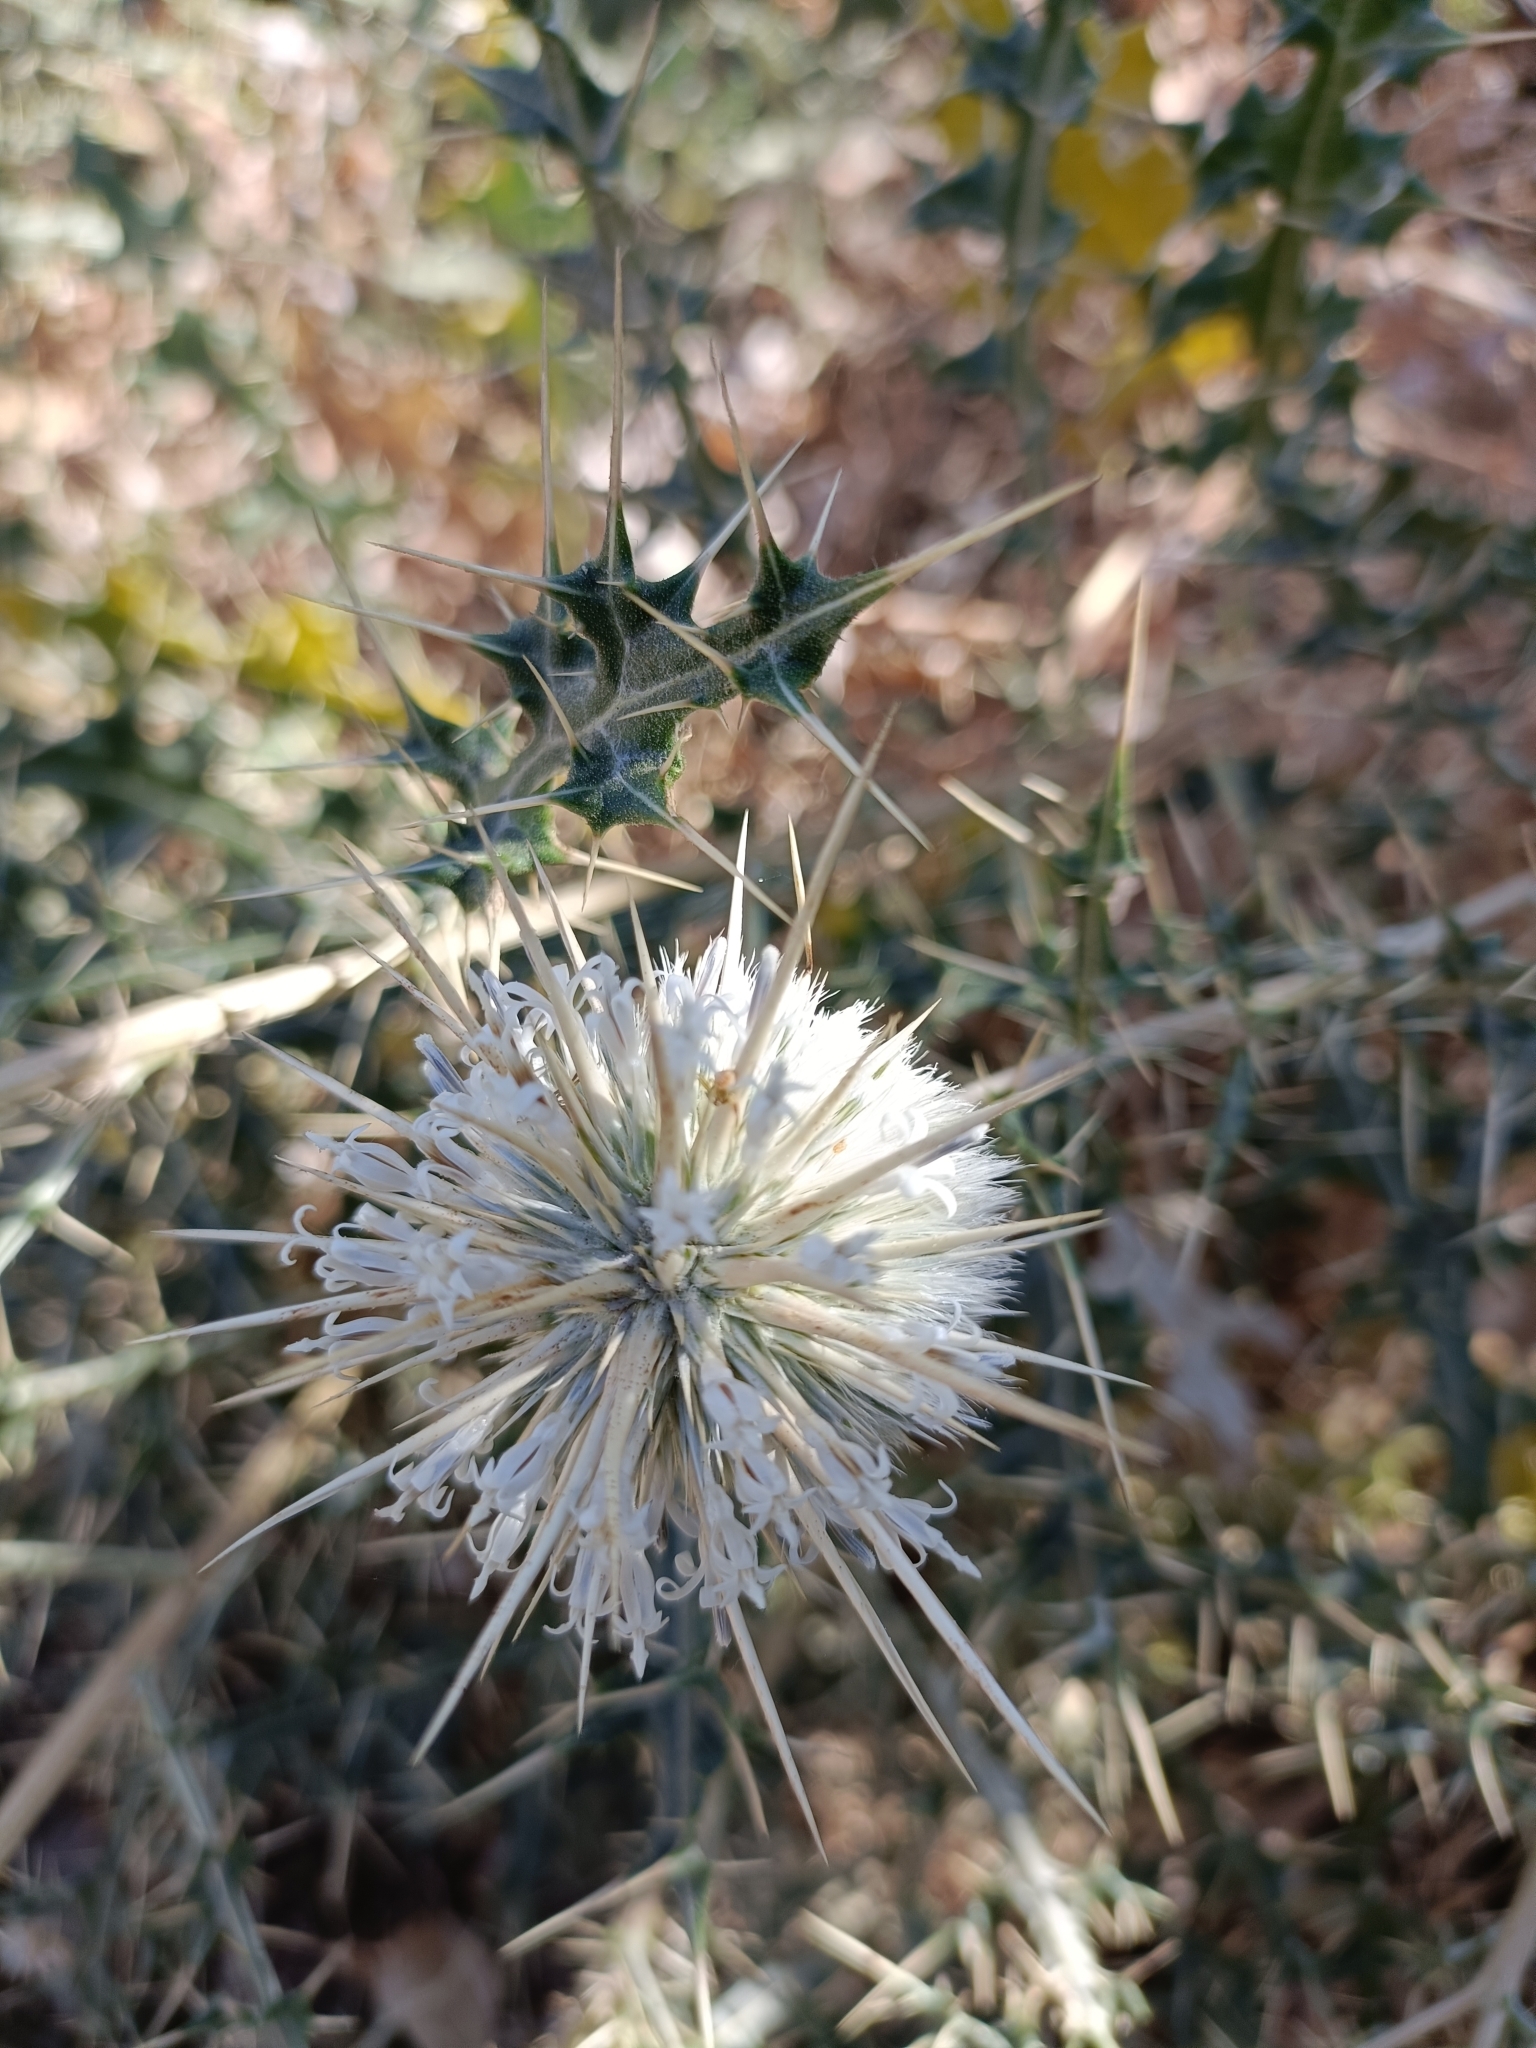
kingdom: Plantae
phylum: Tracheophyta
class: Magnoliopsida
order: Asterales
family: Asteraceae
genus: Echinops
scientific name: Echinops echinatus
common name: Indian globe thistle
